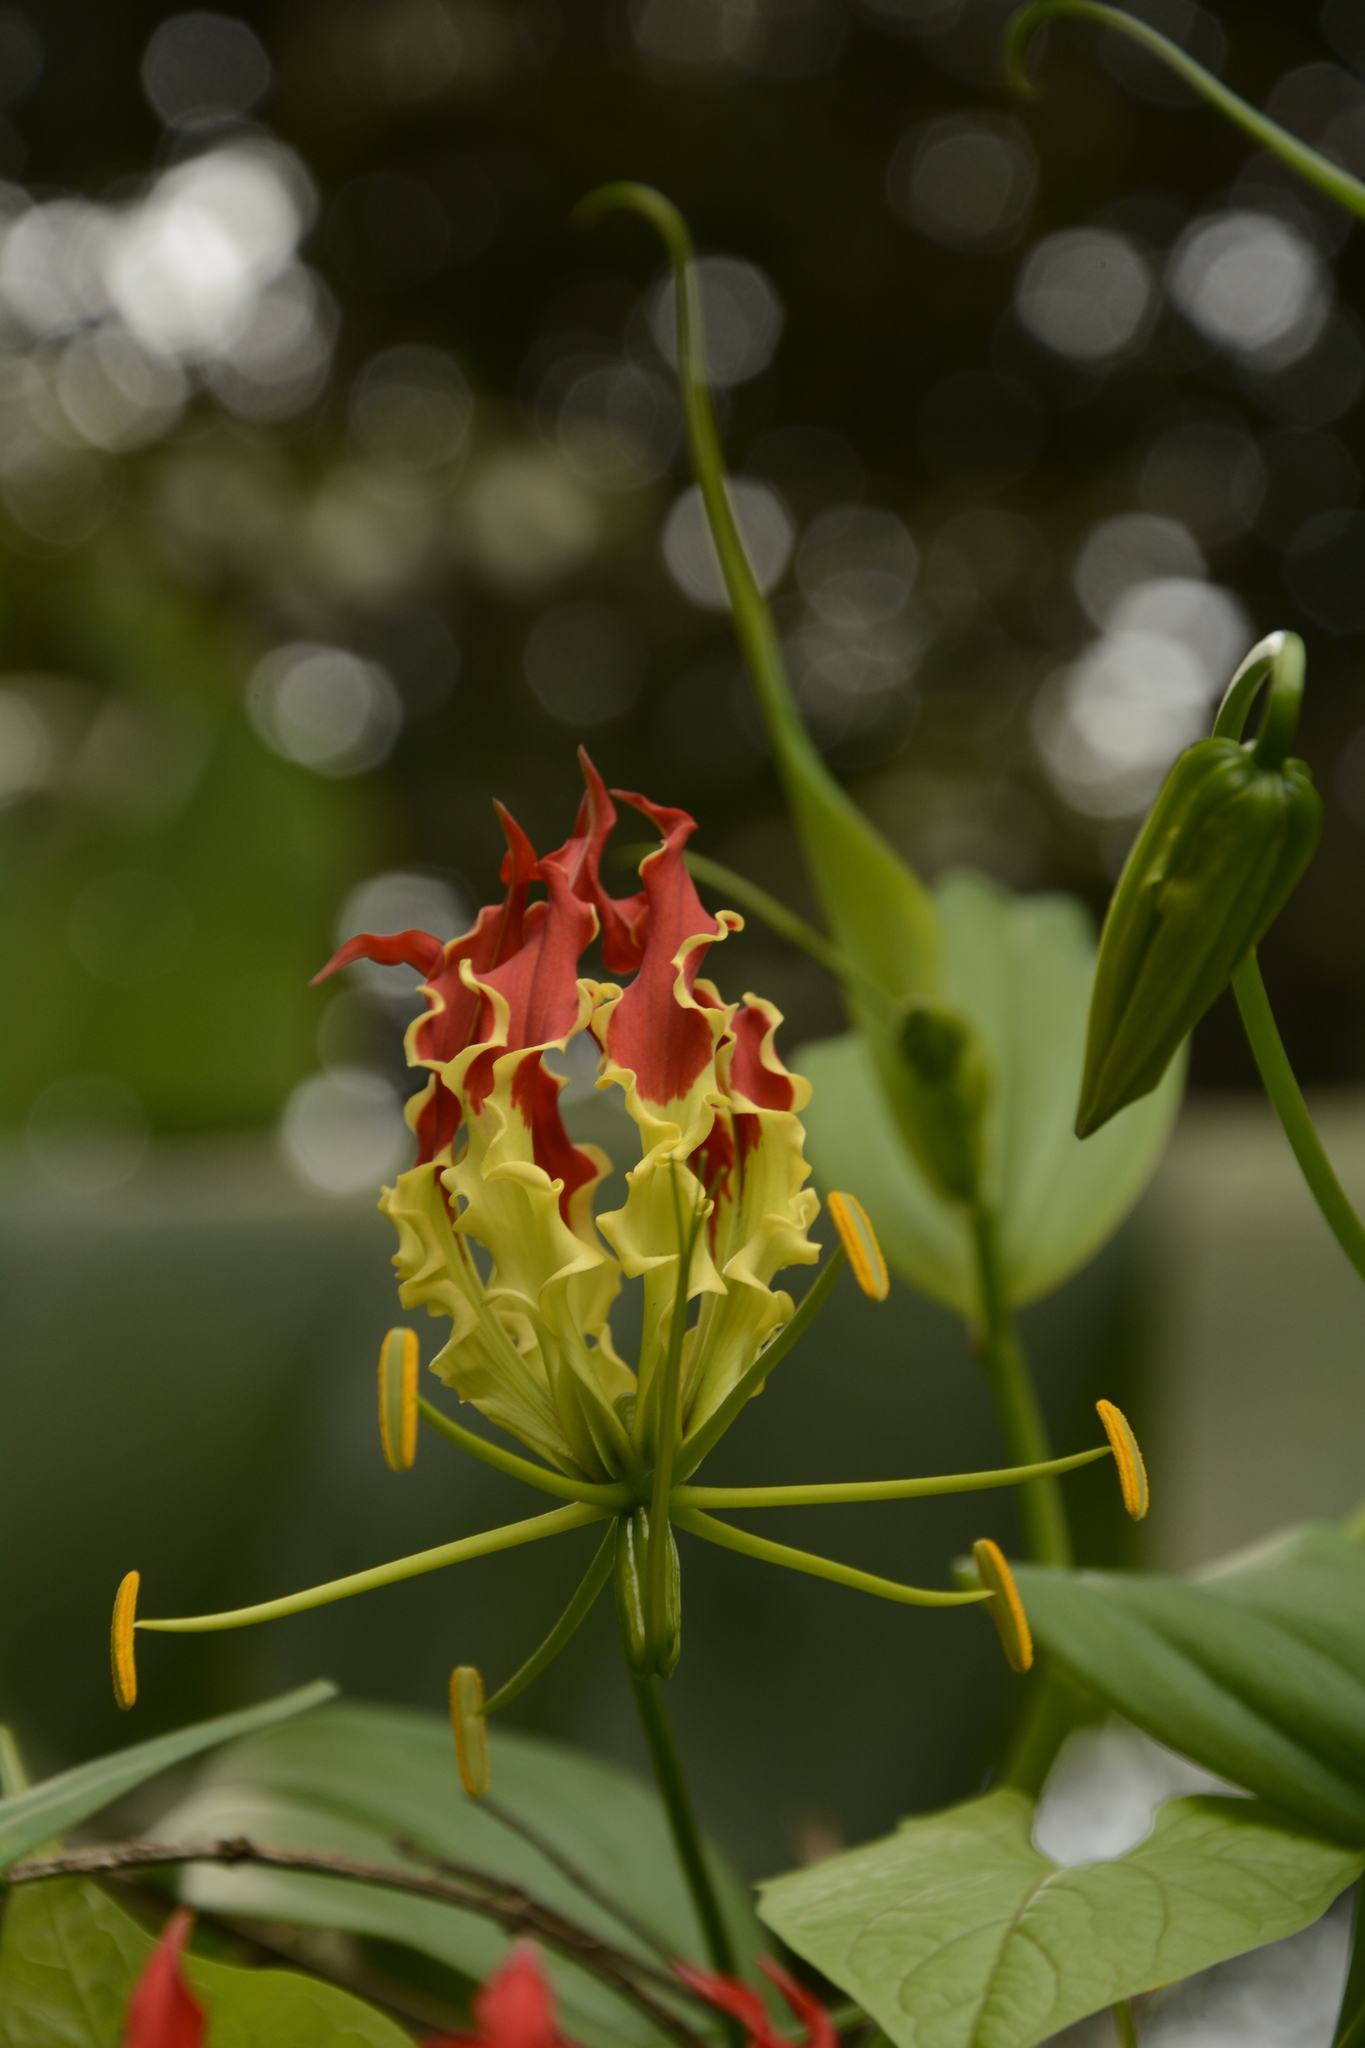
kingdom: Plantae
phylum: Tracheophyta
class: Liliopsida
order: Liliales
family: Colchicaceae
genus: Gloriosa
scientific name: Gloriosa superba
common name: Flame lily
